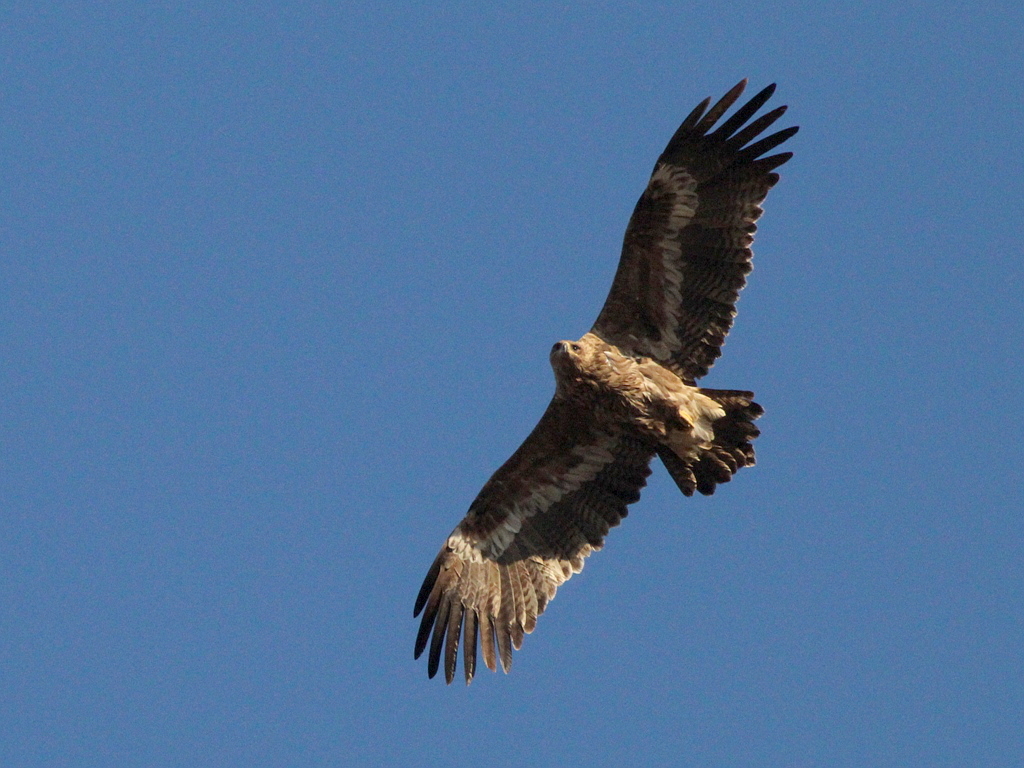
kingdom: Animalia
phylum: Chordata
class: Aves
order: Accipitriformes
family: Accipitridae
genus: Aquila
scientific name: Aquila nipalensis
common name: Steppe eagle
